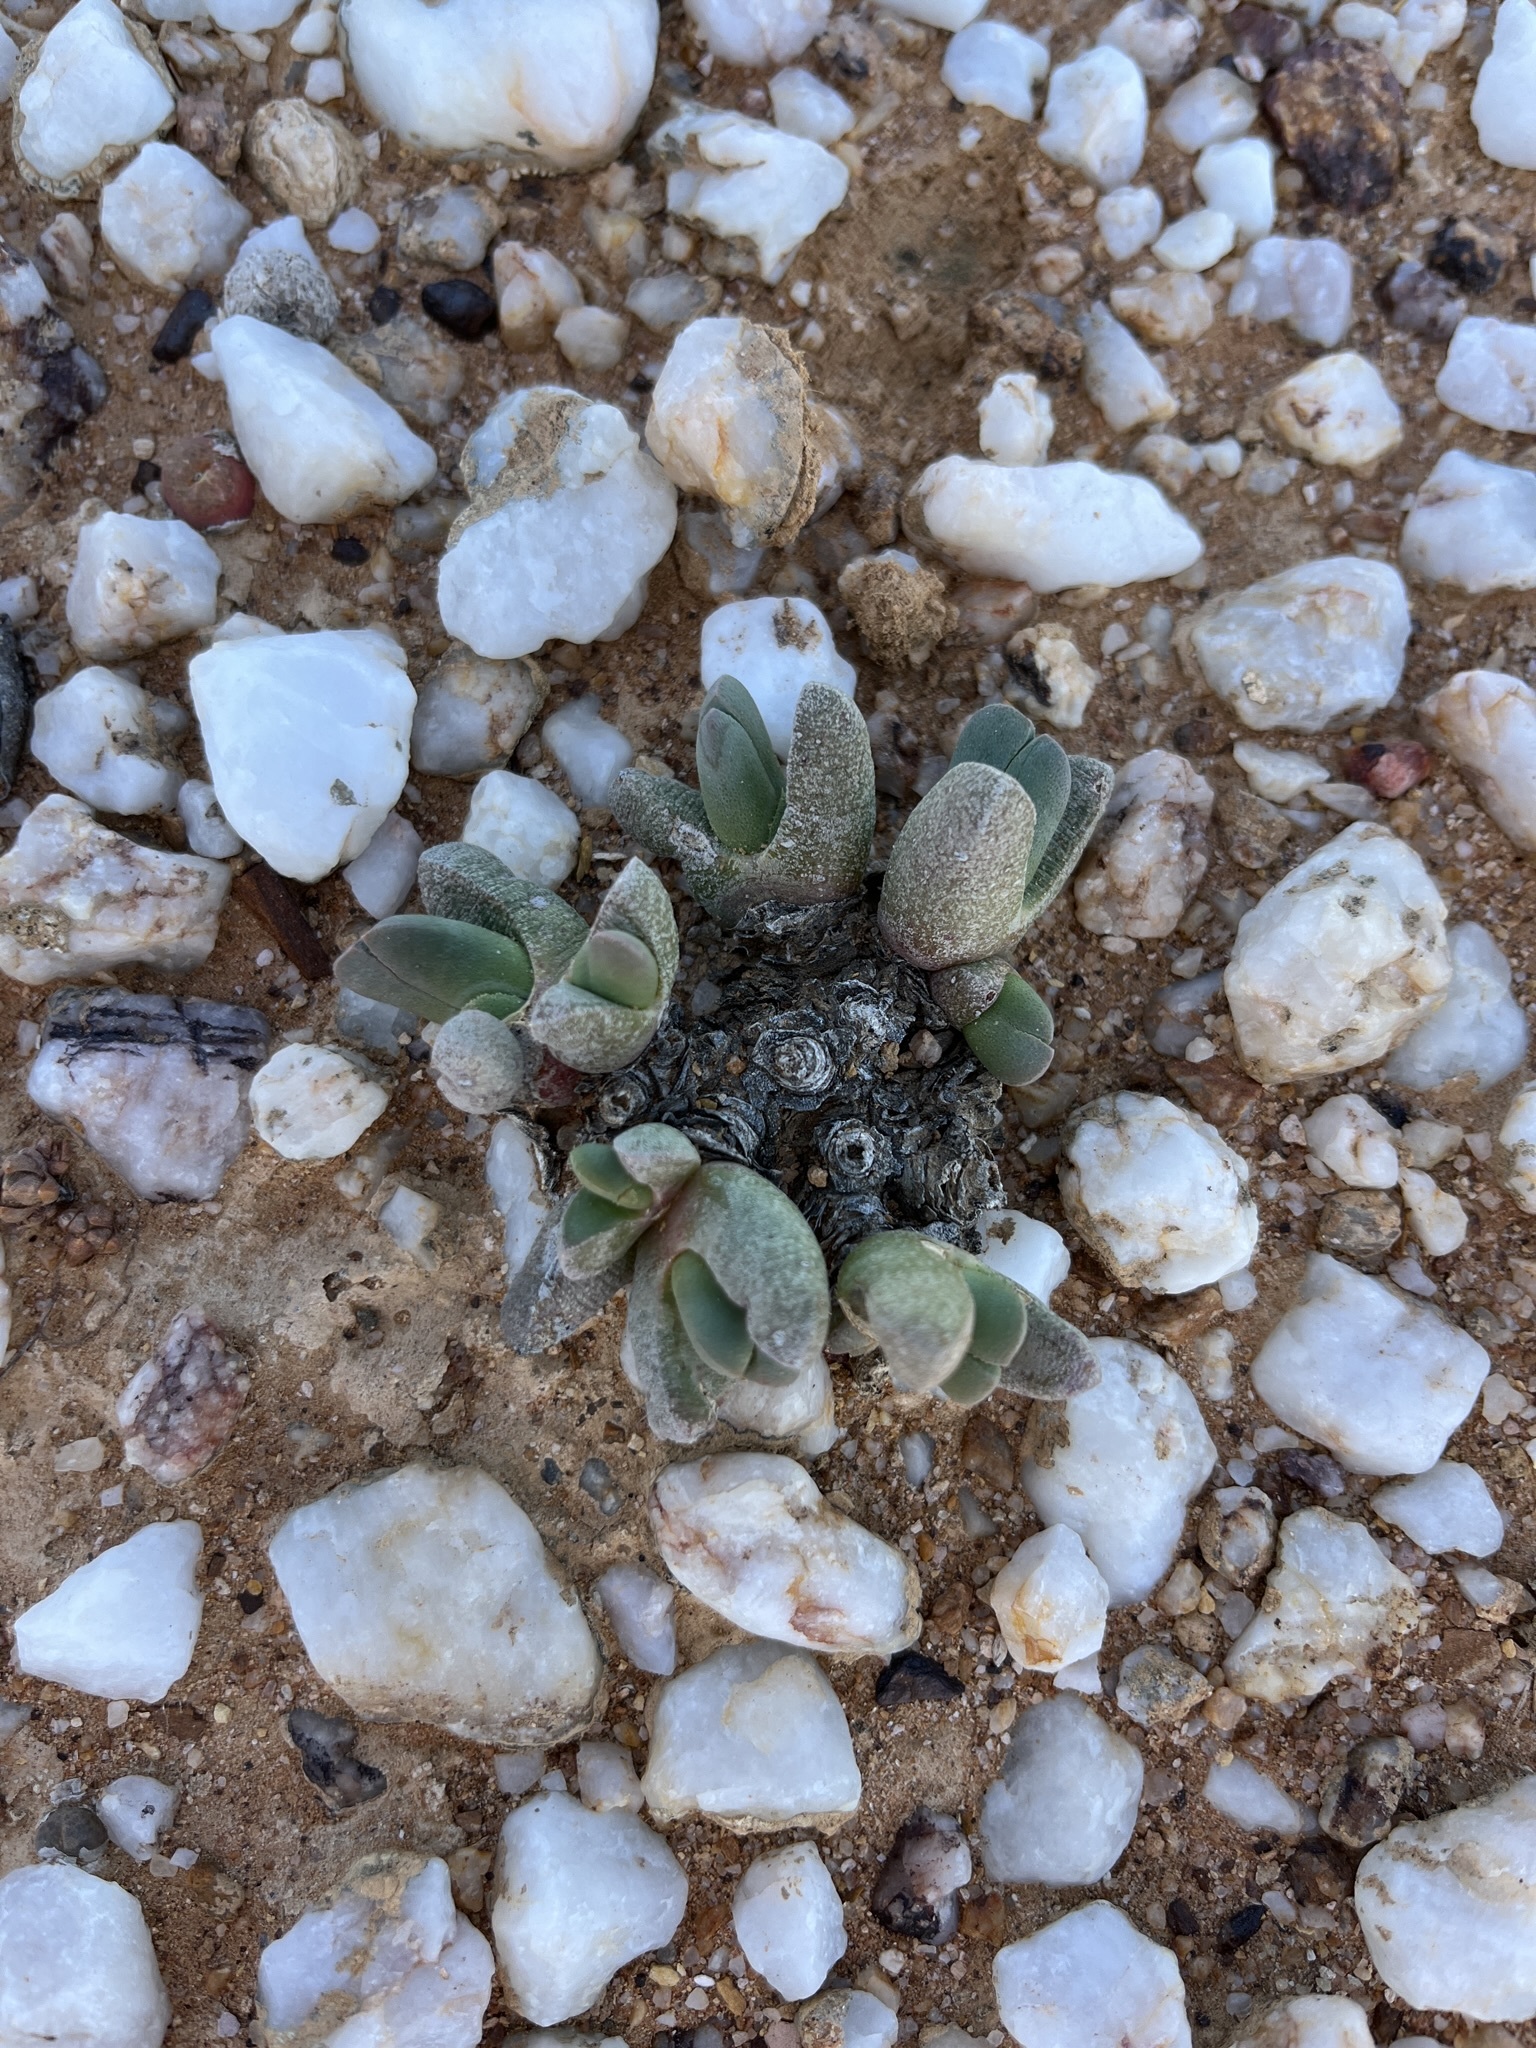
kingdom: Plantae
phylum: Tracheophyta
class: Magnoliopsida
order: Caryophyllales
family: Aizoaceae
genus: Cephalophyllum
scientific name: Cephalophyllum spissum
